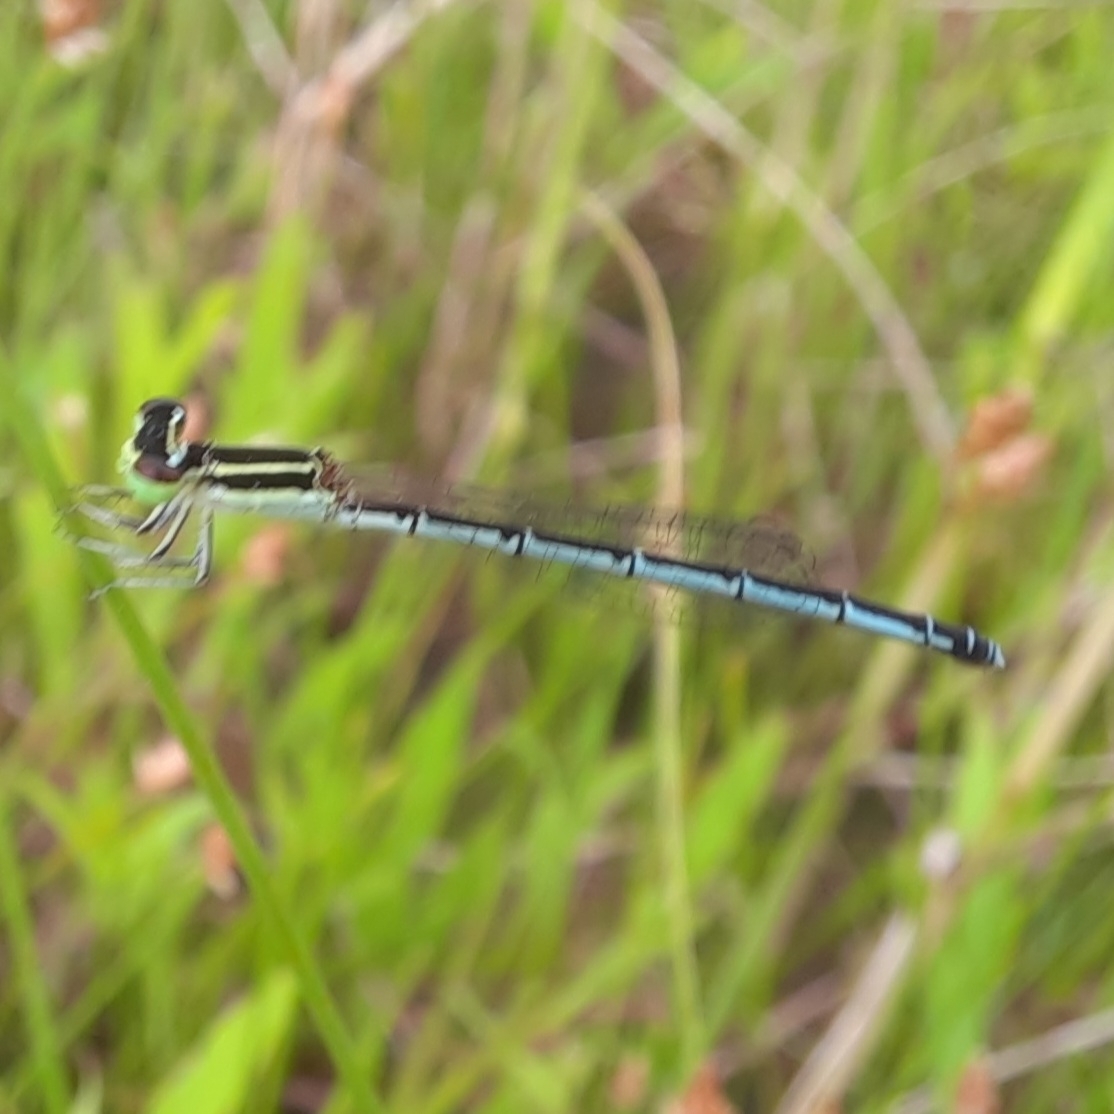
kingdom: Animalia
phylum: Arthropoda
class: Insecta
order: Odonata
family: Coenagrionidae
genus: Agriocnemis
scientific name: Agriocnemis pieris
